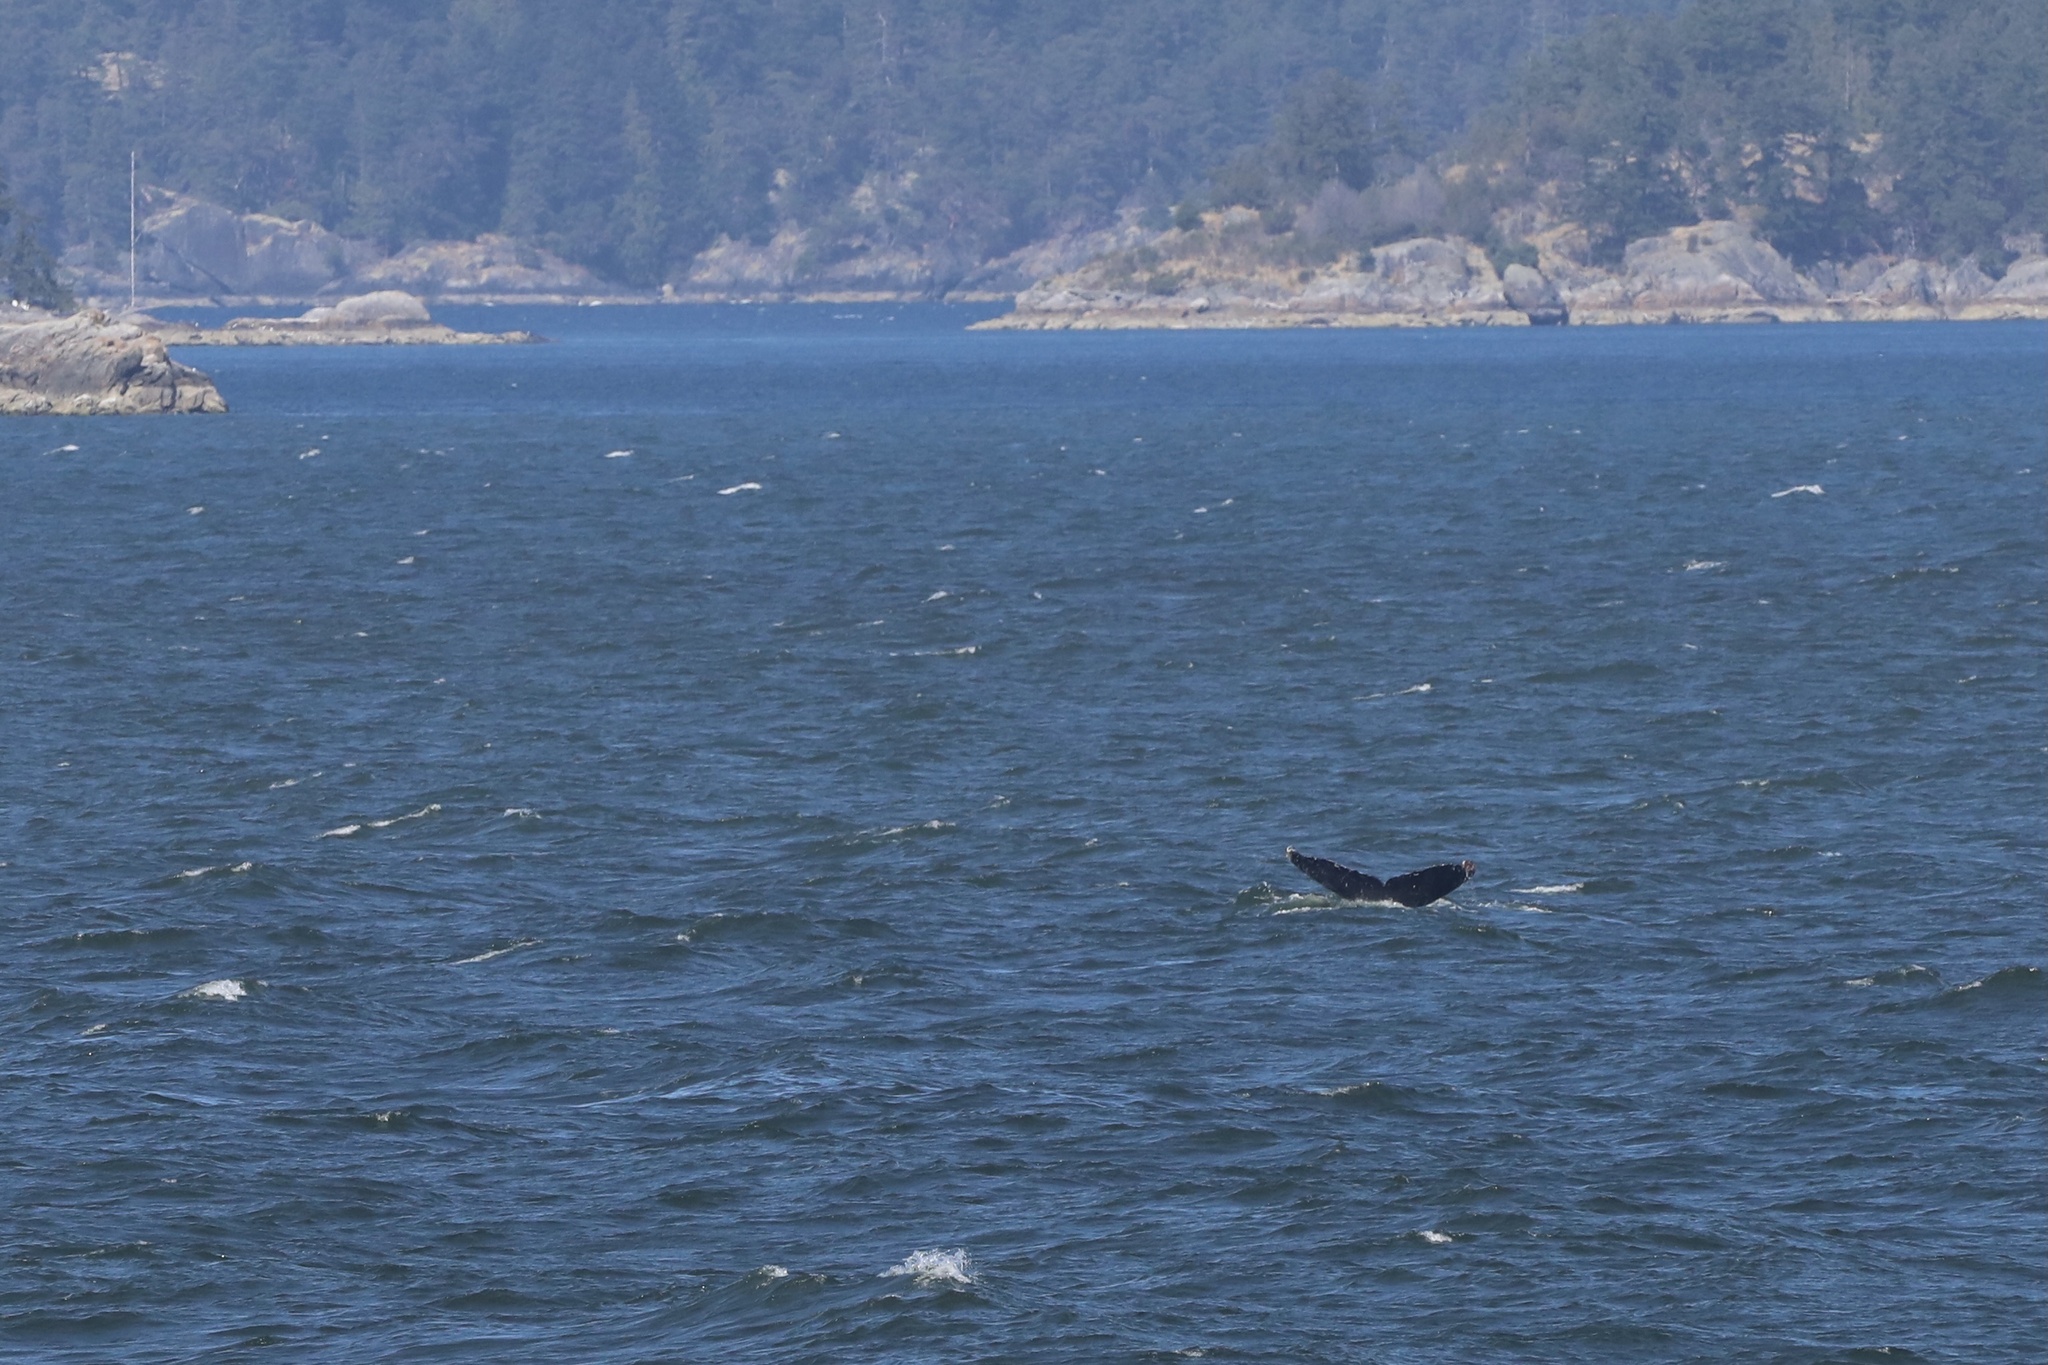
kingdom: Animalia
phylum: Chordata
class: Mammalia
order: Cetacea
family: Balaenopteridae
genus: Megaptera
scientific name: Megaptera novaeangliae
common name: Humpback whale
